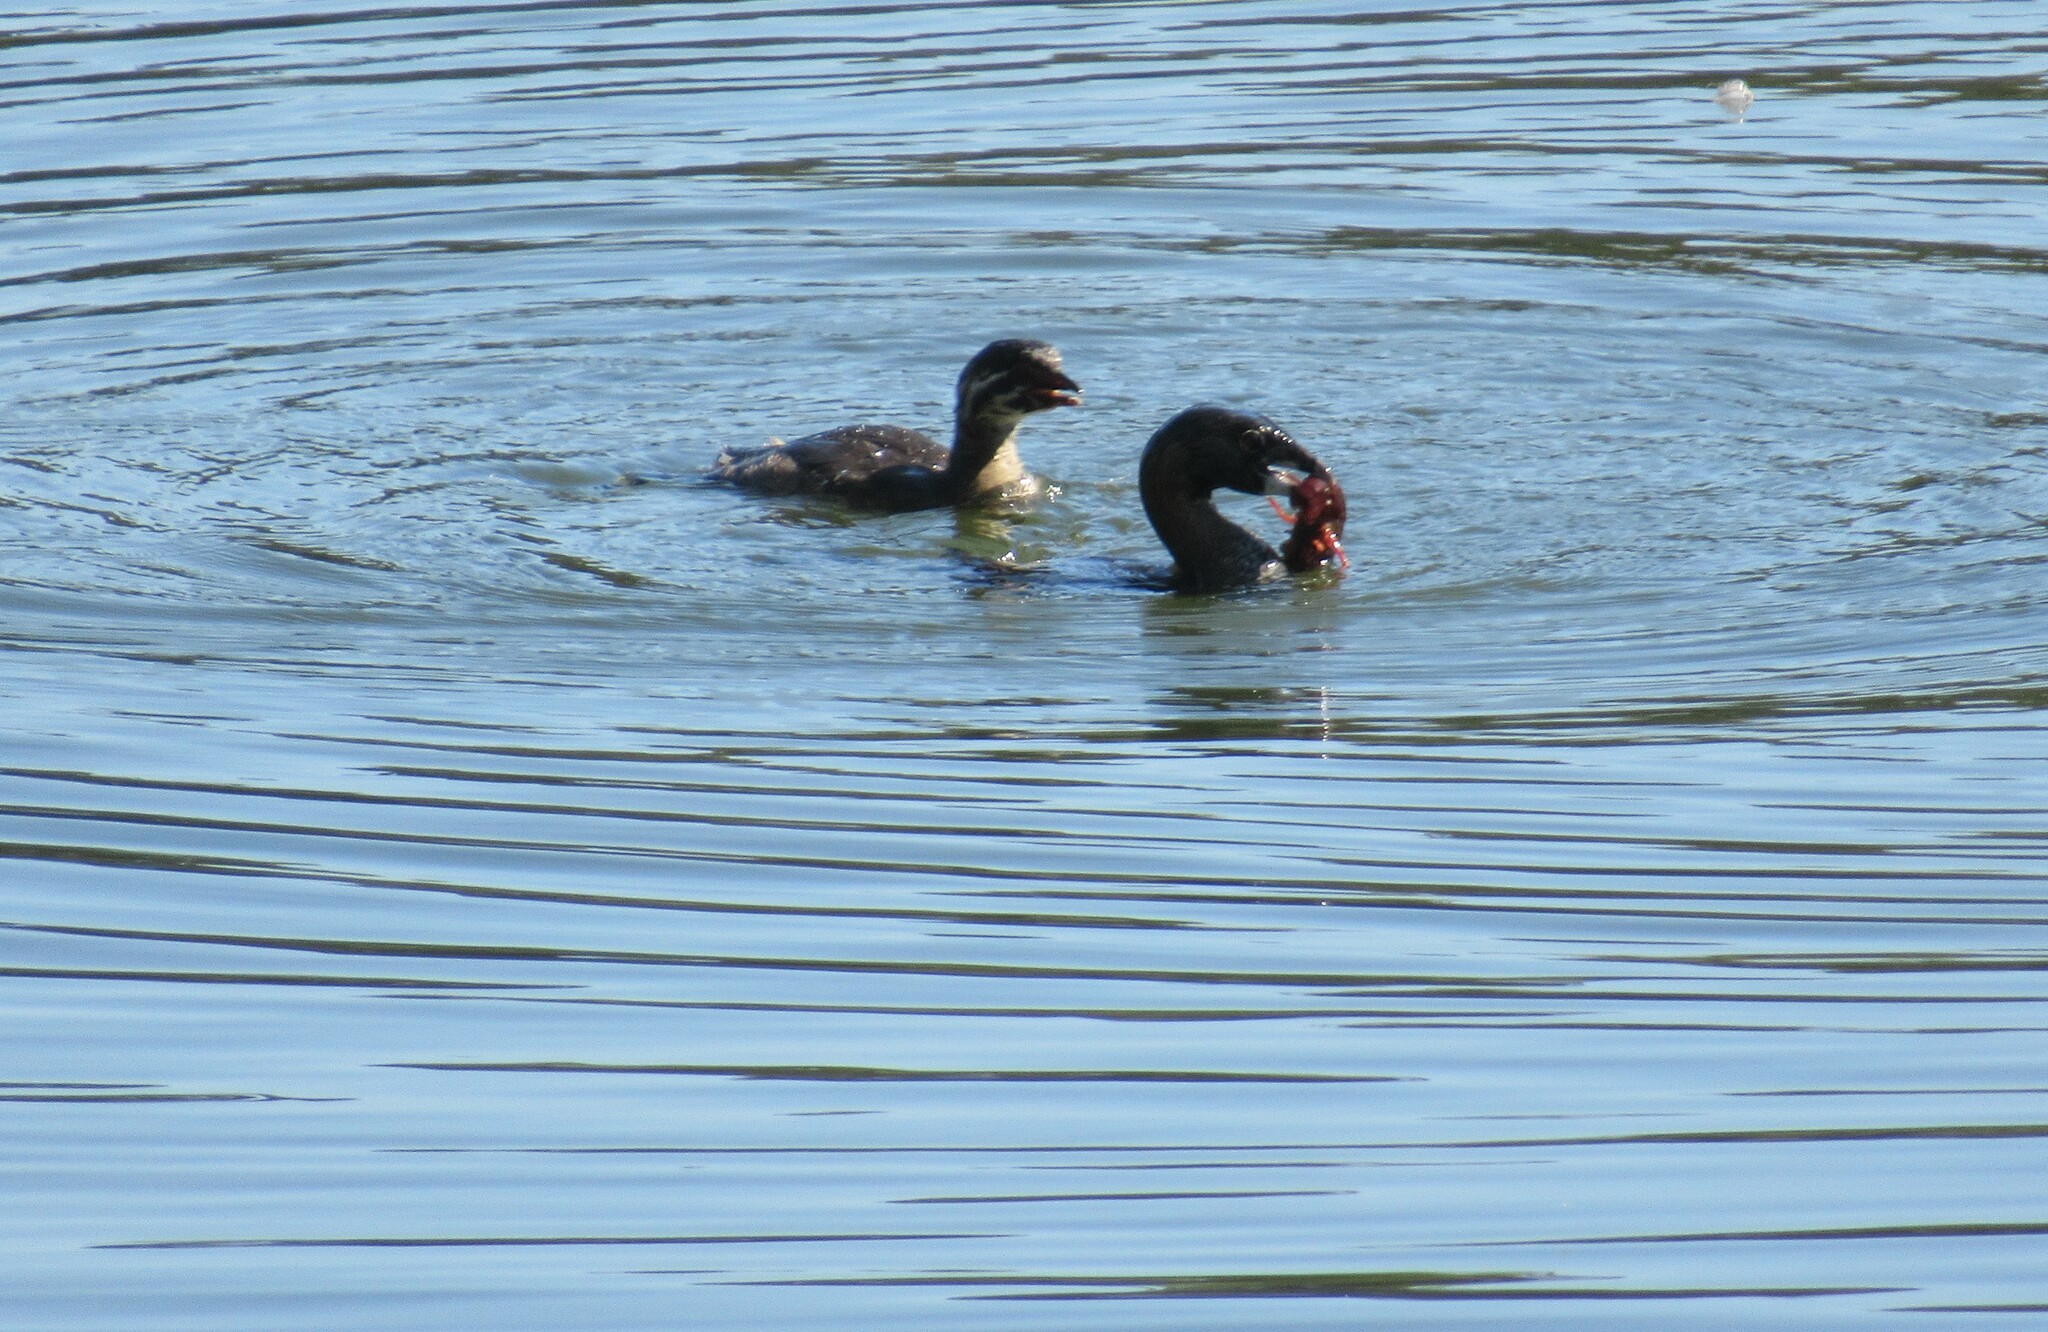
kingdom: Animalia
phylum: Chordata
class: Aves
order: Podicipediformes
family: Podicipedidae
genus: Podilymbus
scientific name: Podilymbus podiceps
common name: Pied-billed grebe
